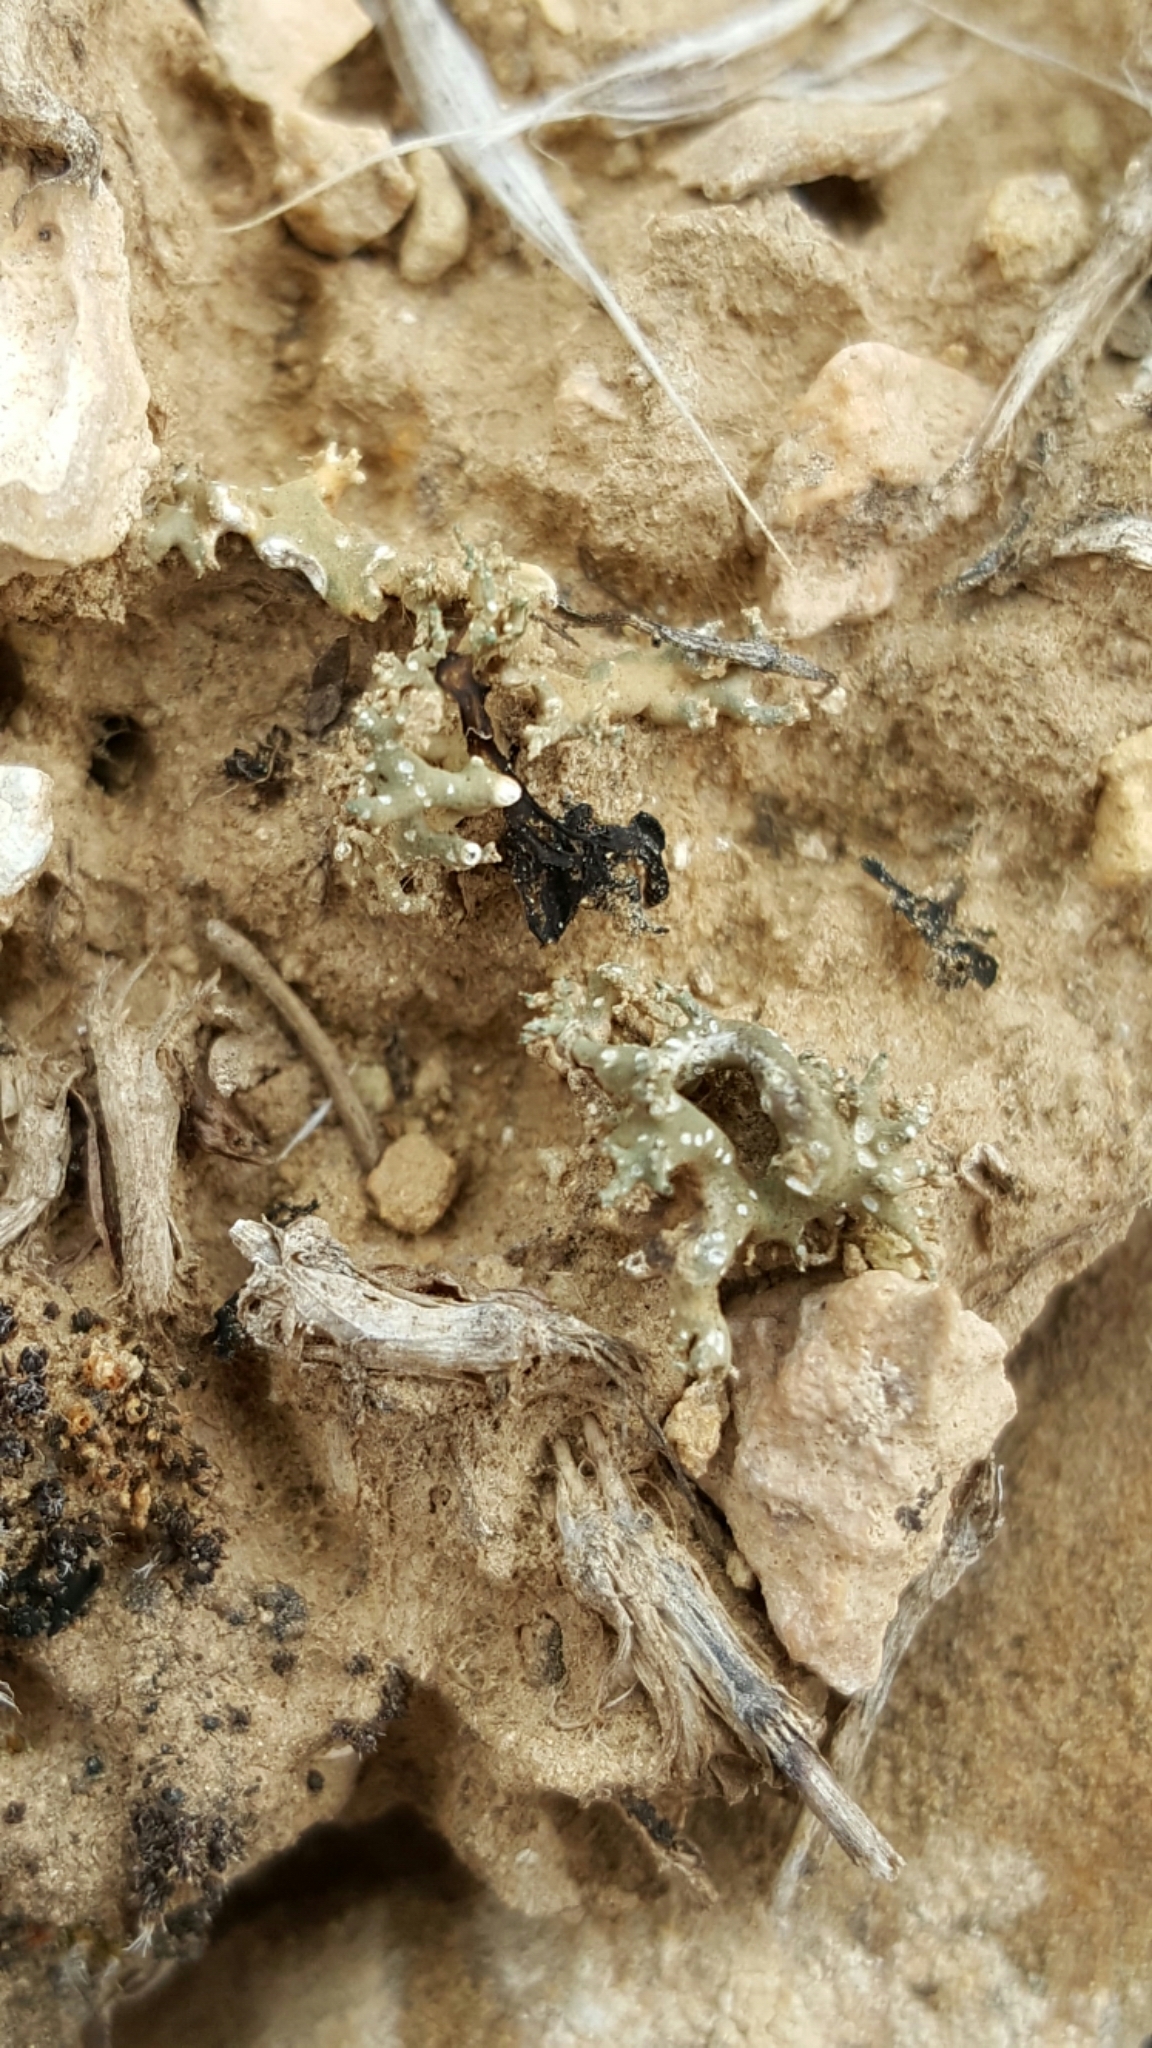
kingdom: Fungi
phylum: Ascomycota
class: Lecanoromycetes
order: Pertusariales
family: Megasporaceae
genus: Circinaria
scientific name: Circinaria hispida
